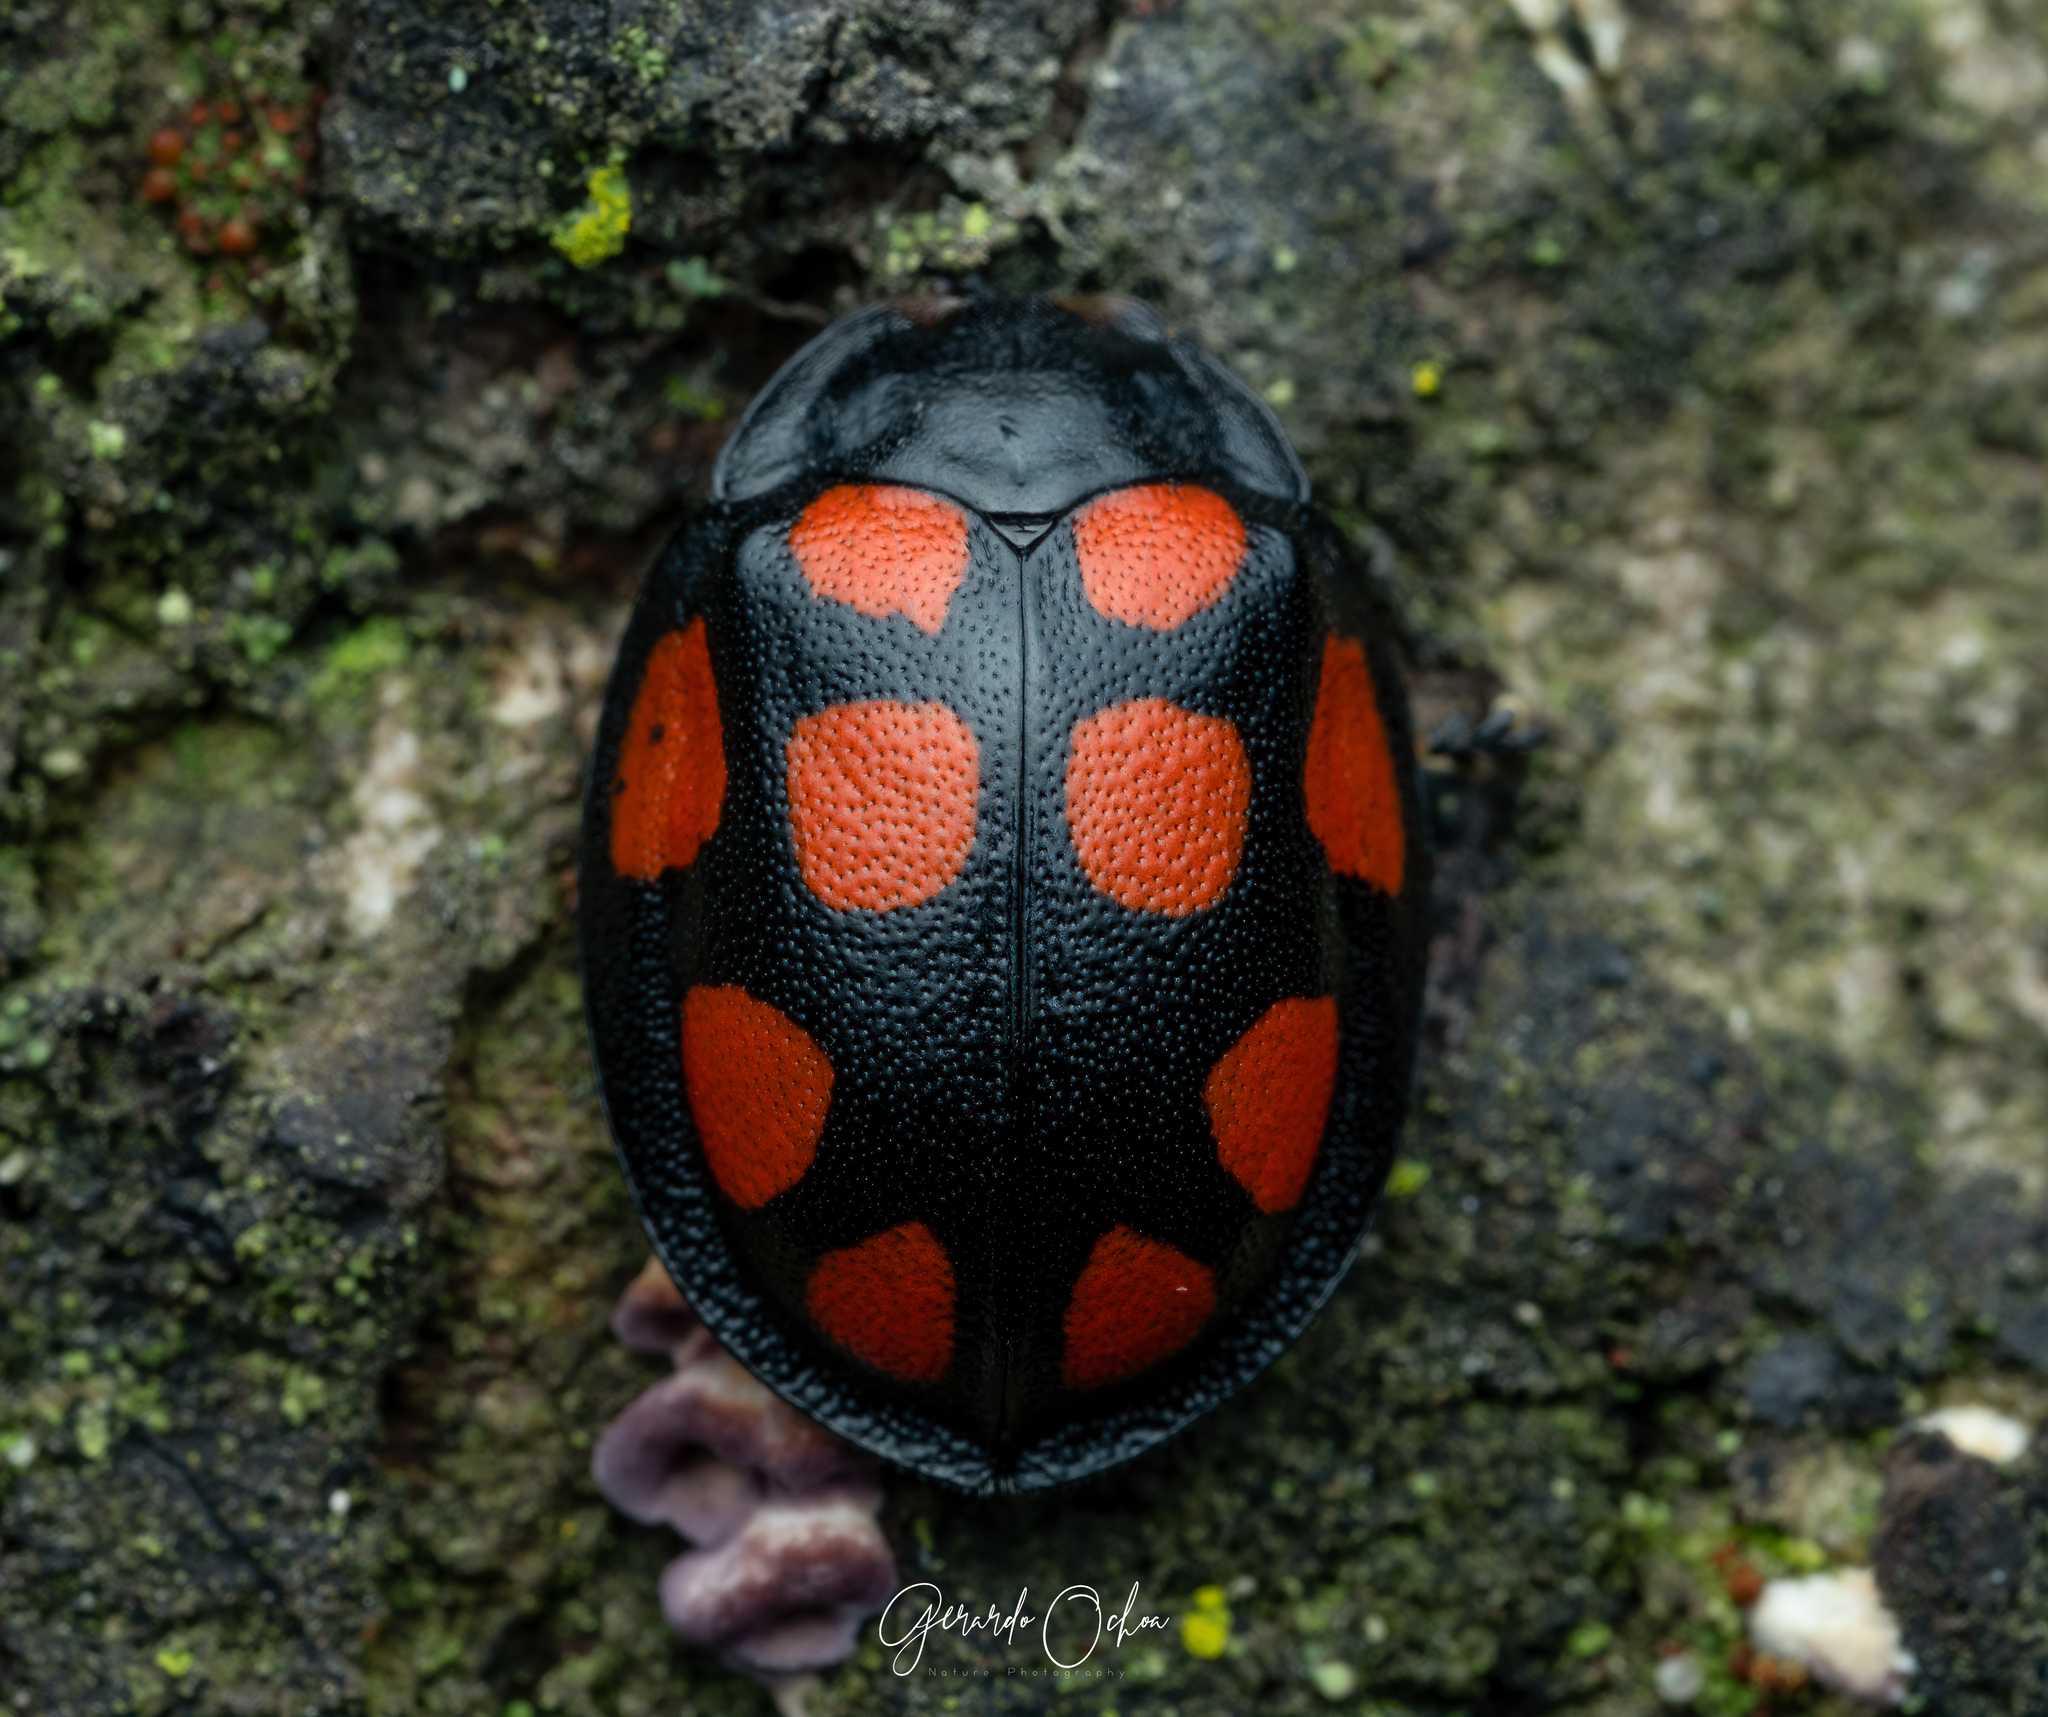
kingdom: Animalia
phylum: Arthropoda
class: Insecta
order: Coleoptera
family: Chrysomelidae
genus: Ogdoecosta
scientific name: Ogdoecosta decemstillata
